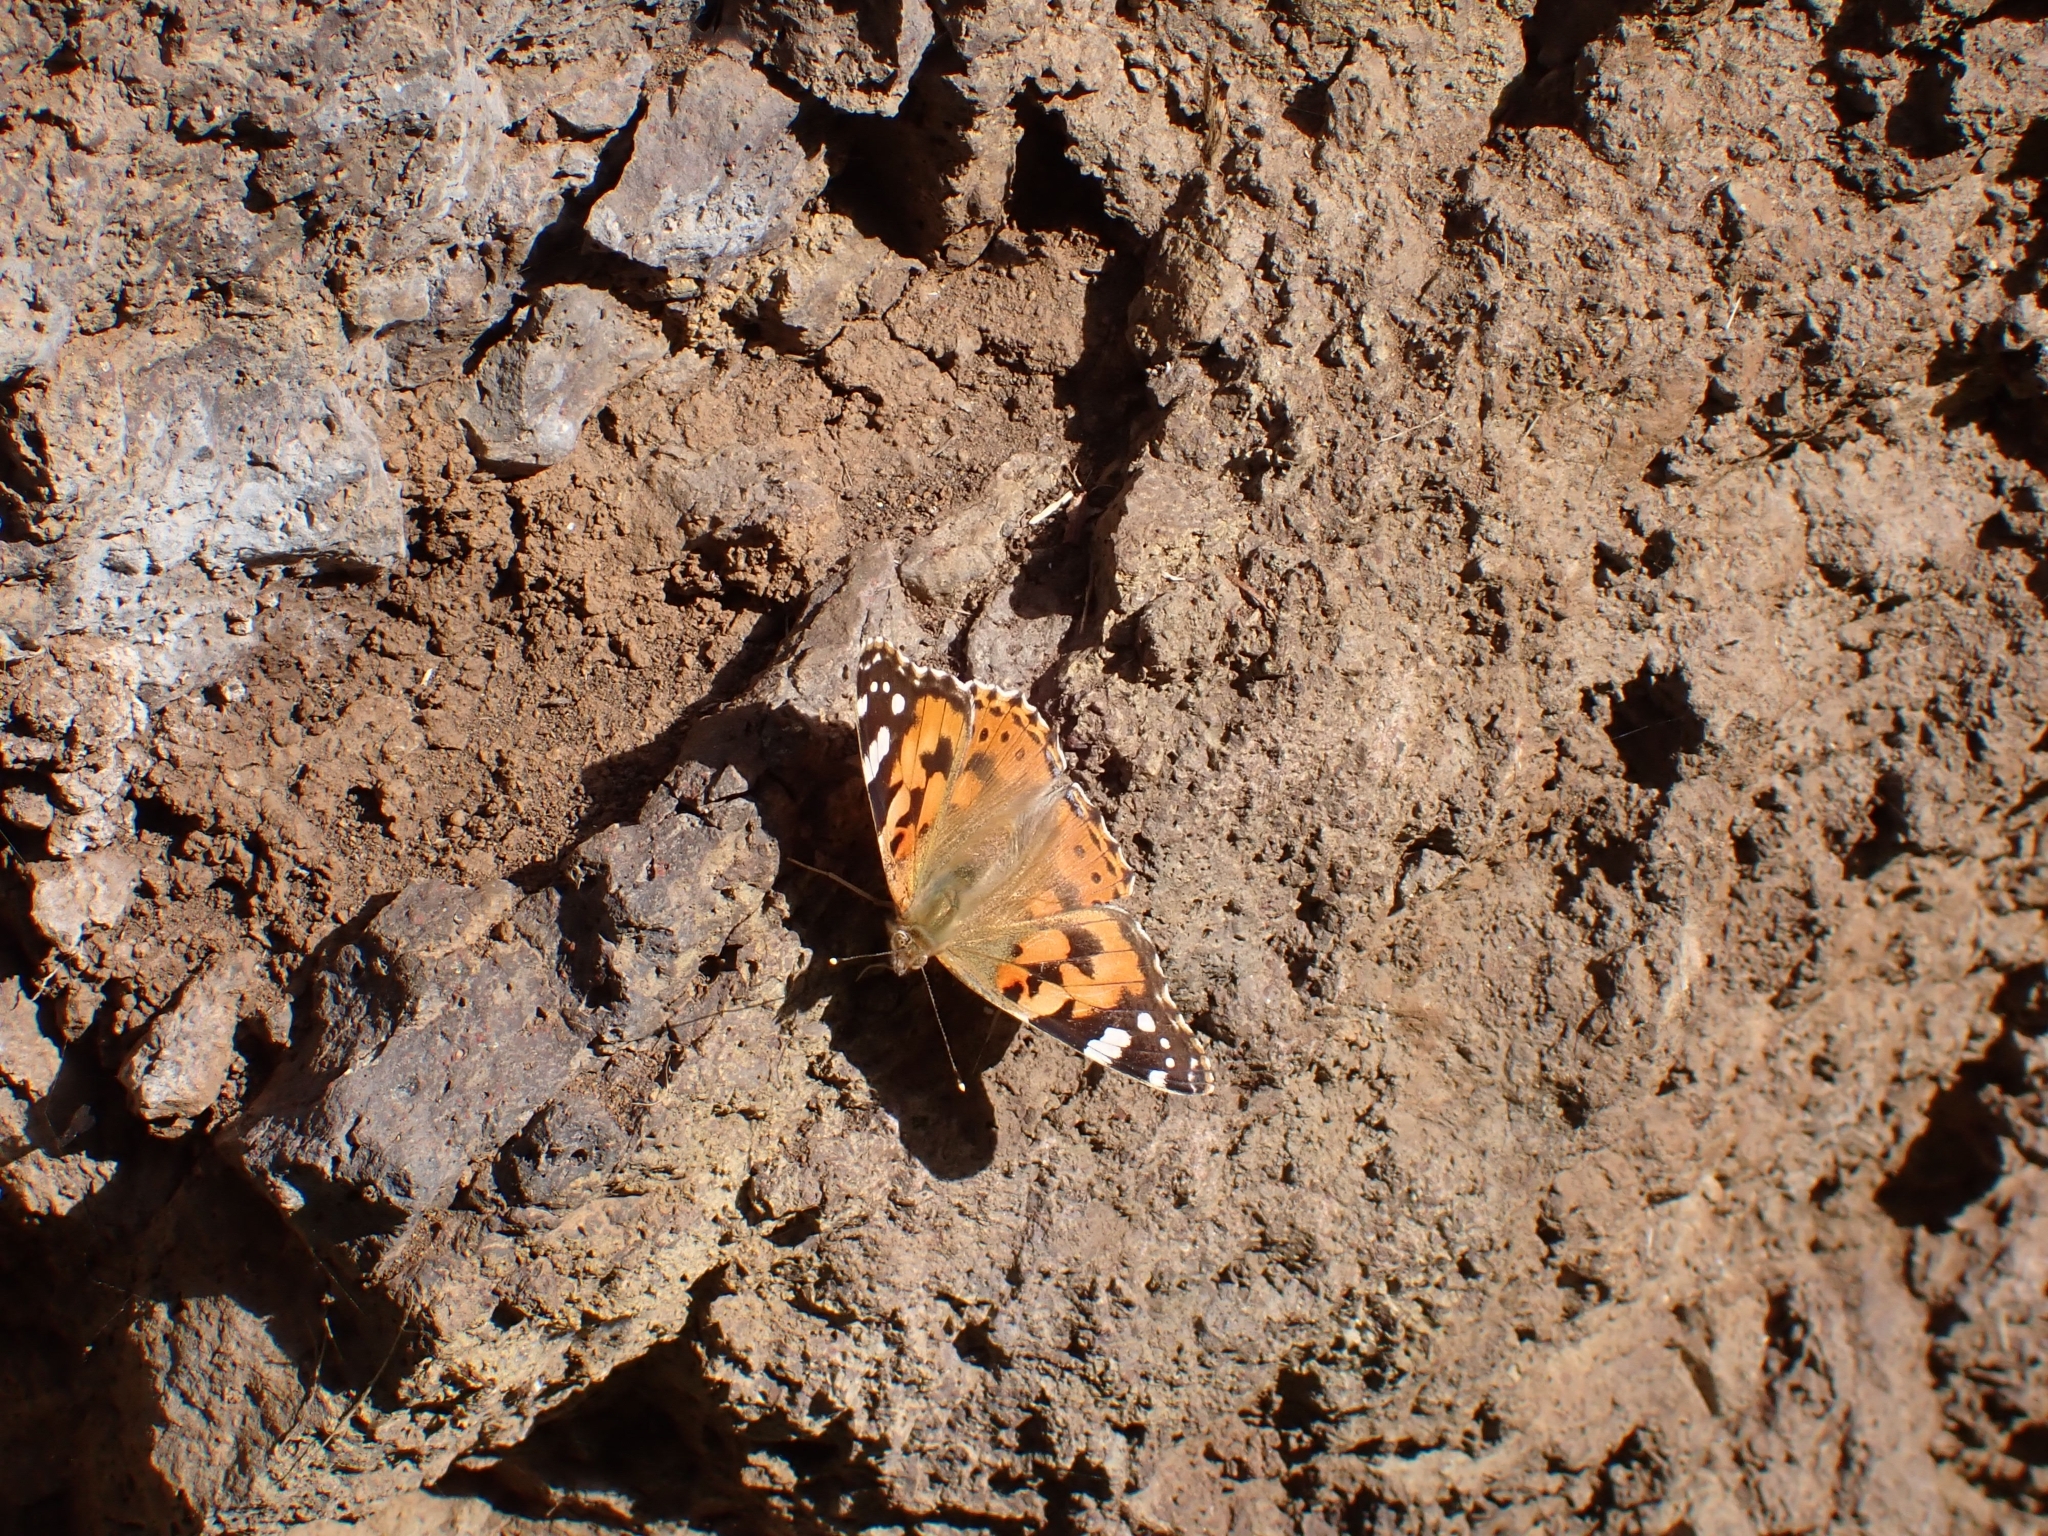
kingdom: Animalia
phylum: Arthropoda
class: Insecta
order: Lepidoptera
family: Nymphalidae
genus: Vanessa
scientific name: Vanessa cardui
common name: Painted lady
